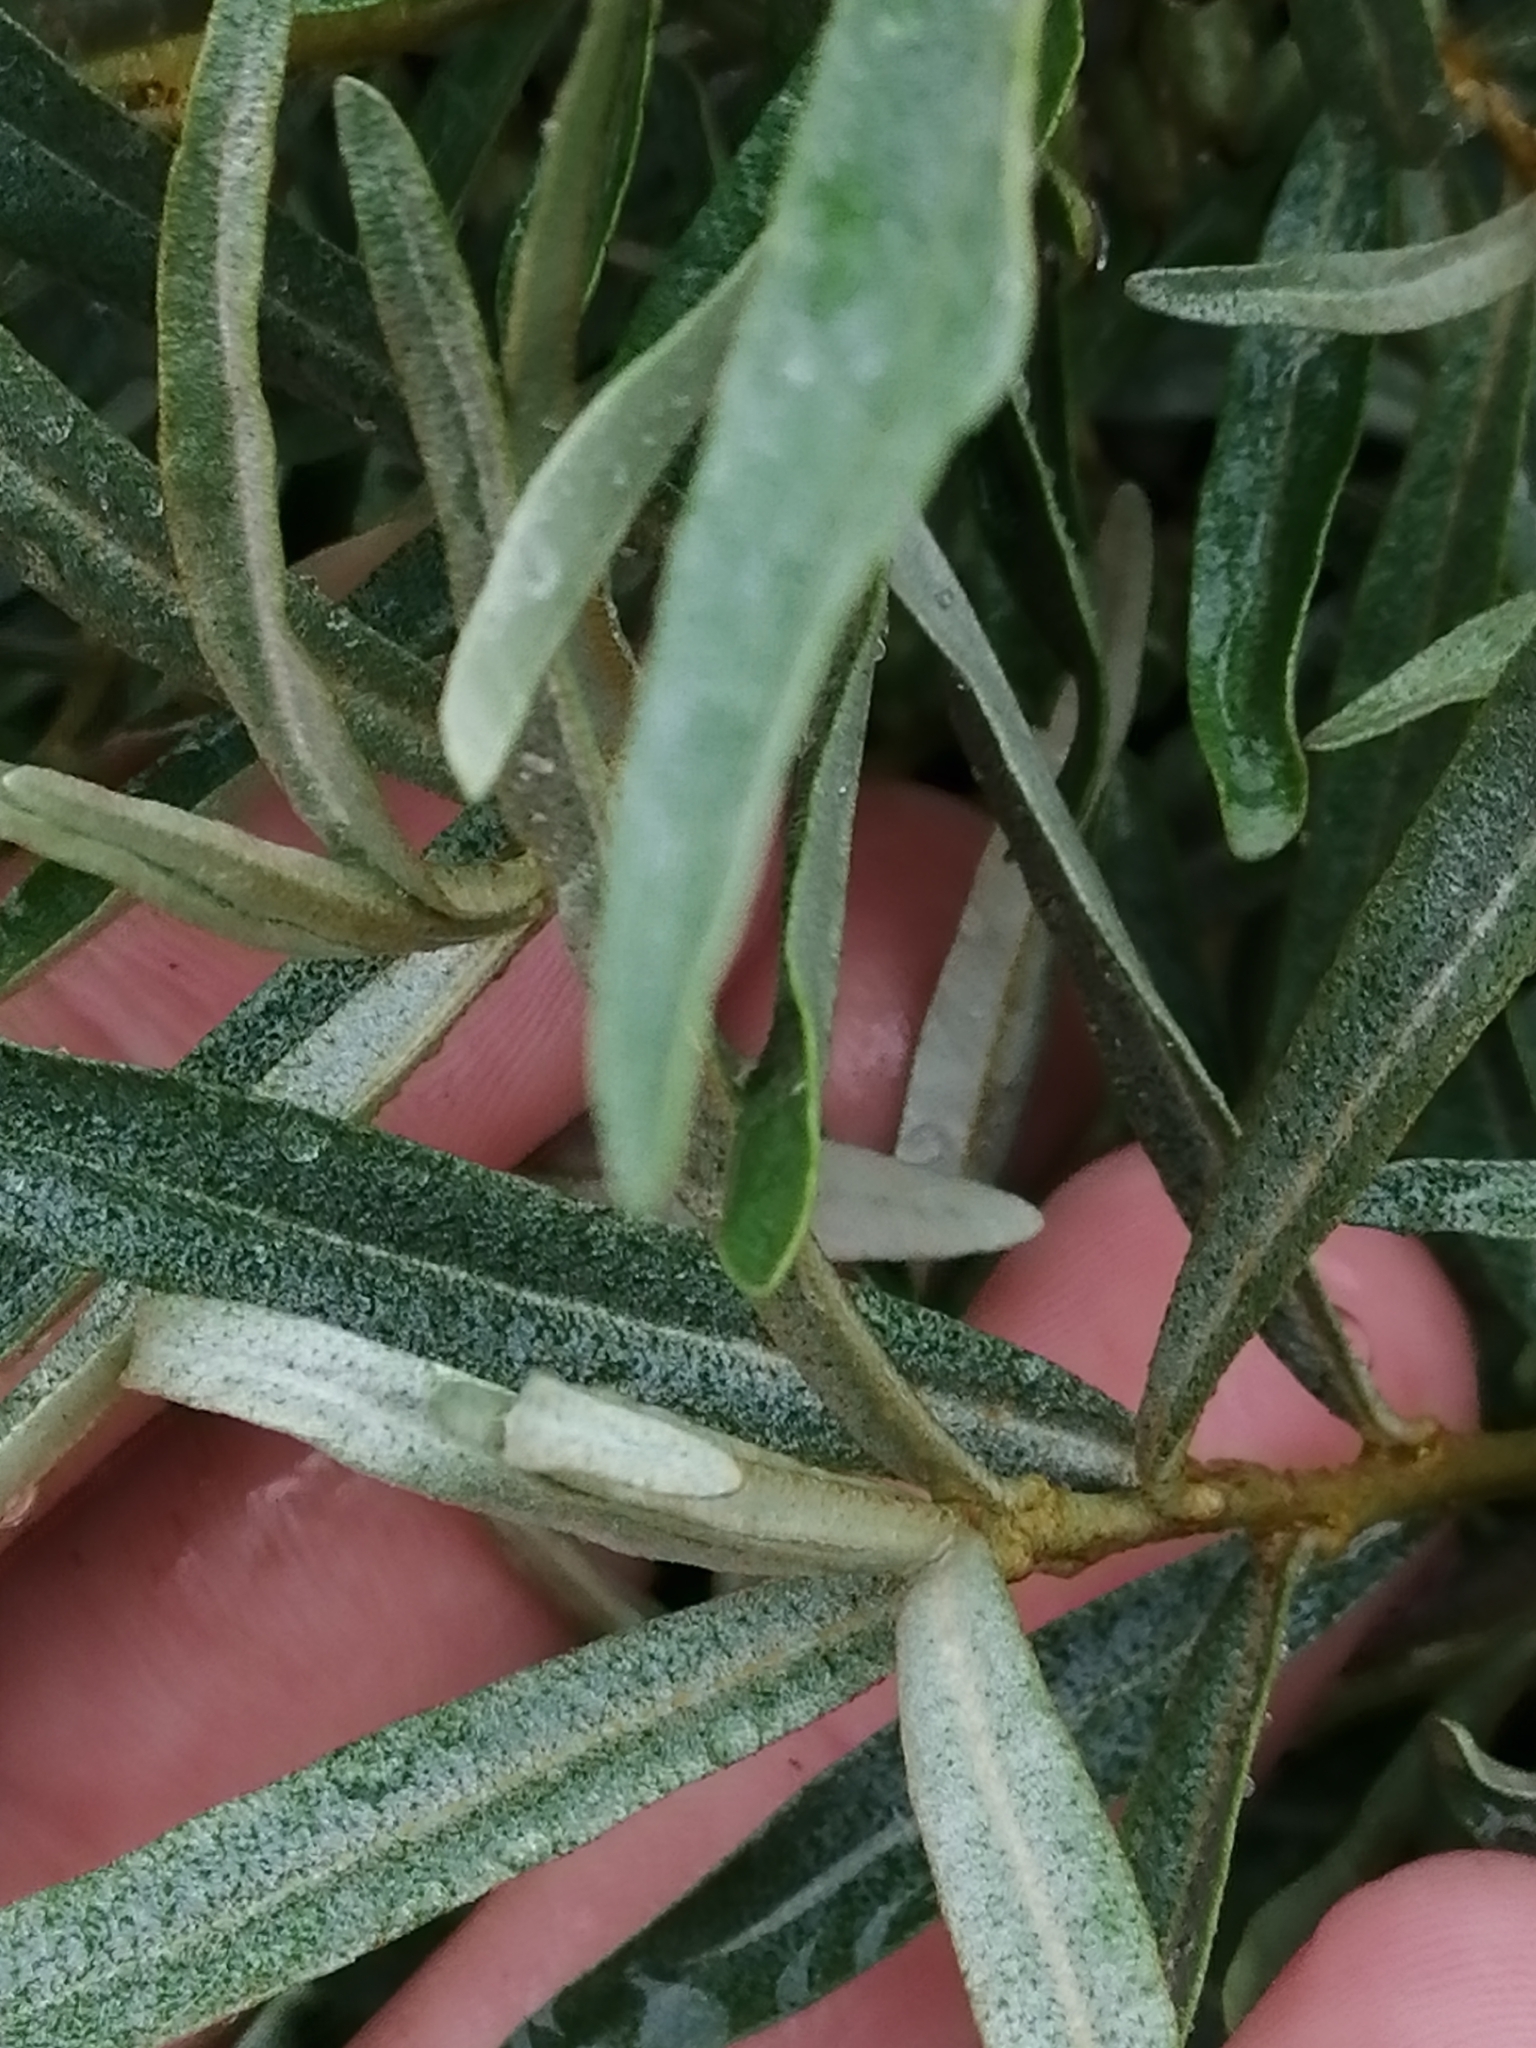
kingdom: Plantae
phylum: Tracheophyta
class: Magnoliopsida
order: Rosales
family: Elaeagnaceae
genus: Hippophae
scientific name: Hippophae rhamnoides
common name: Sea-buckthorn
